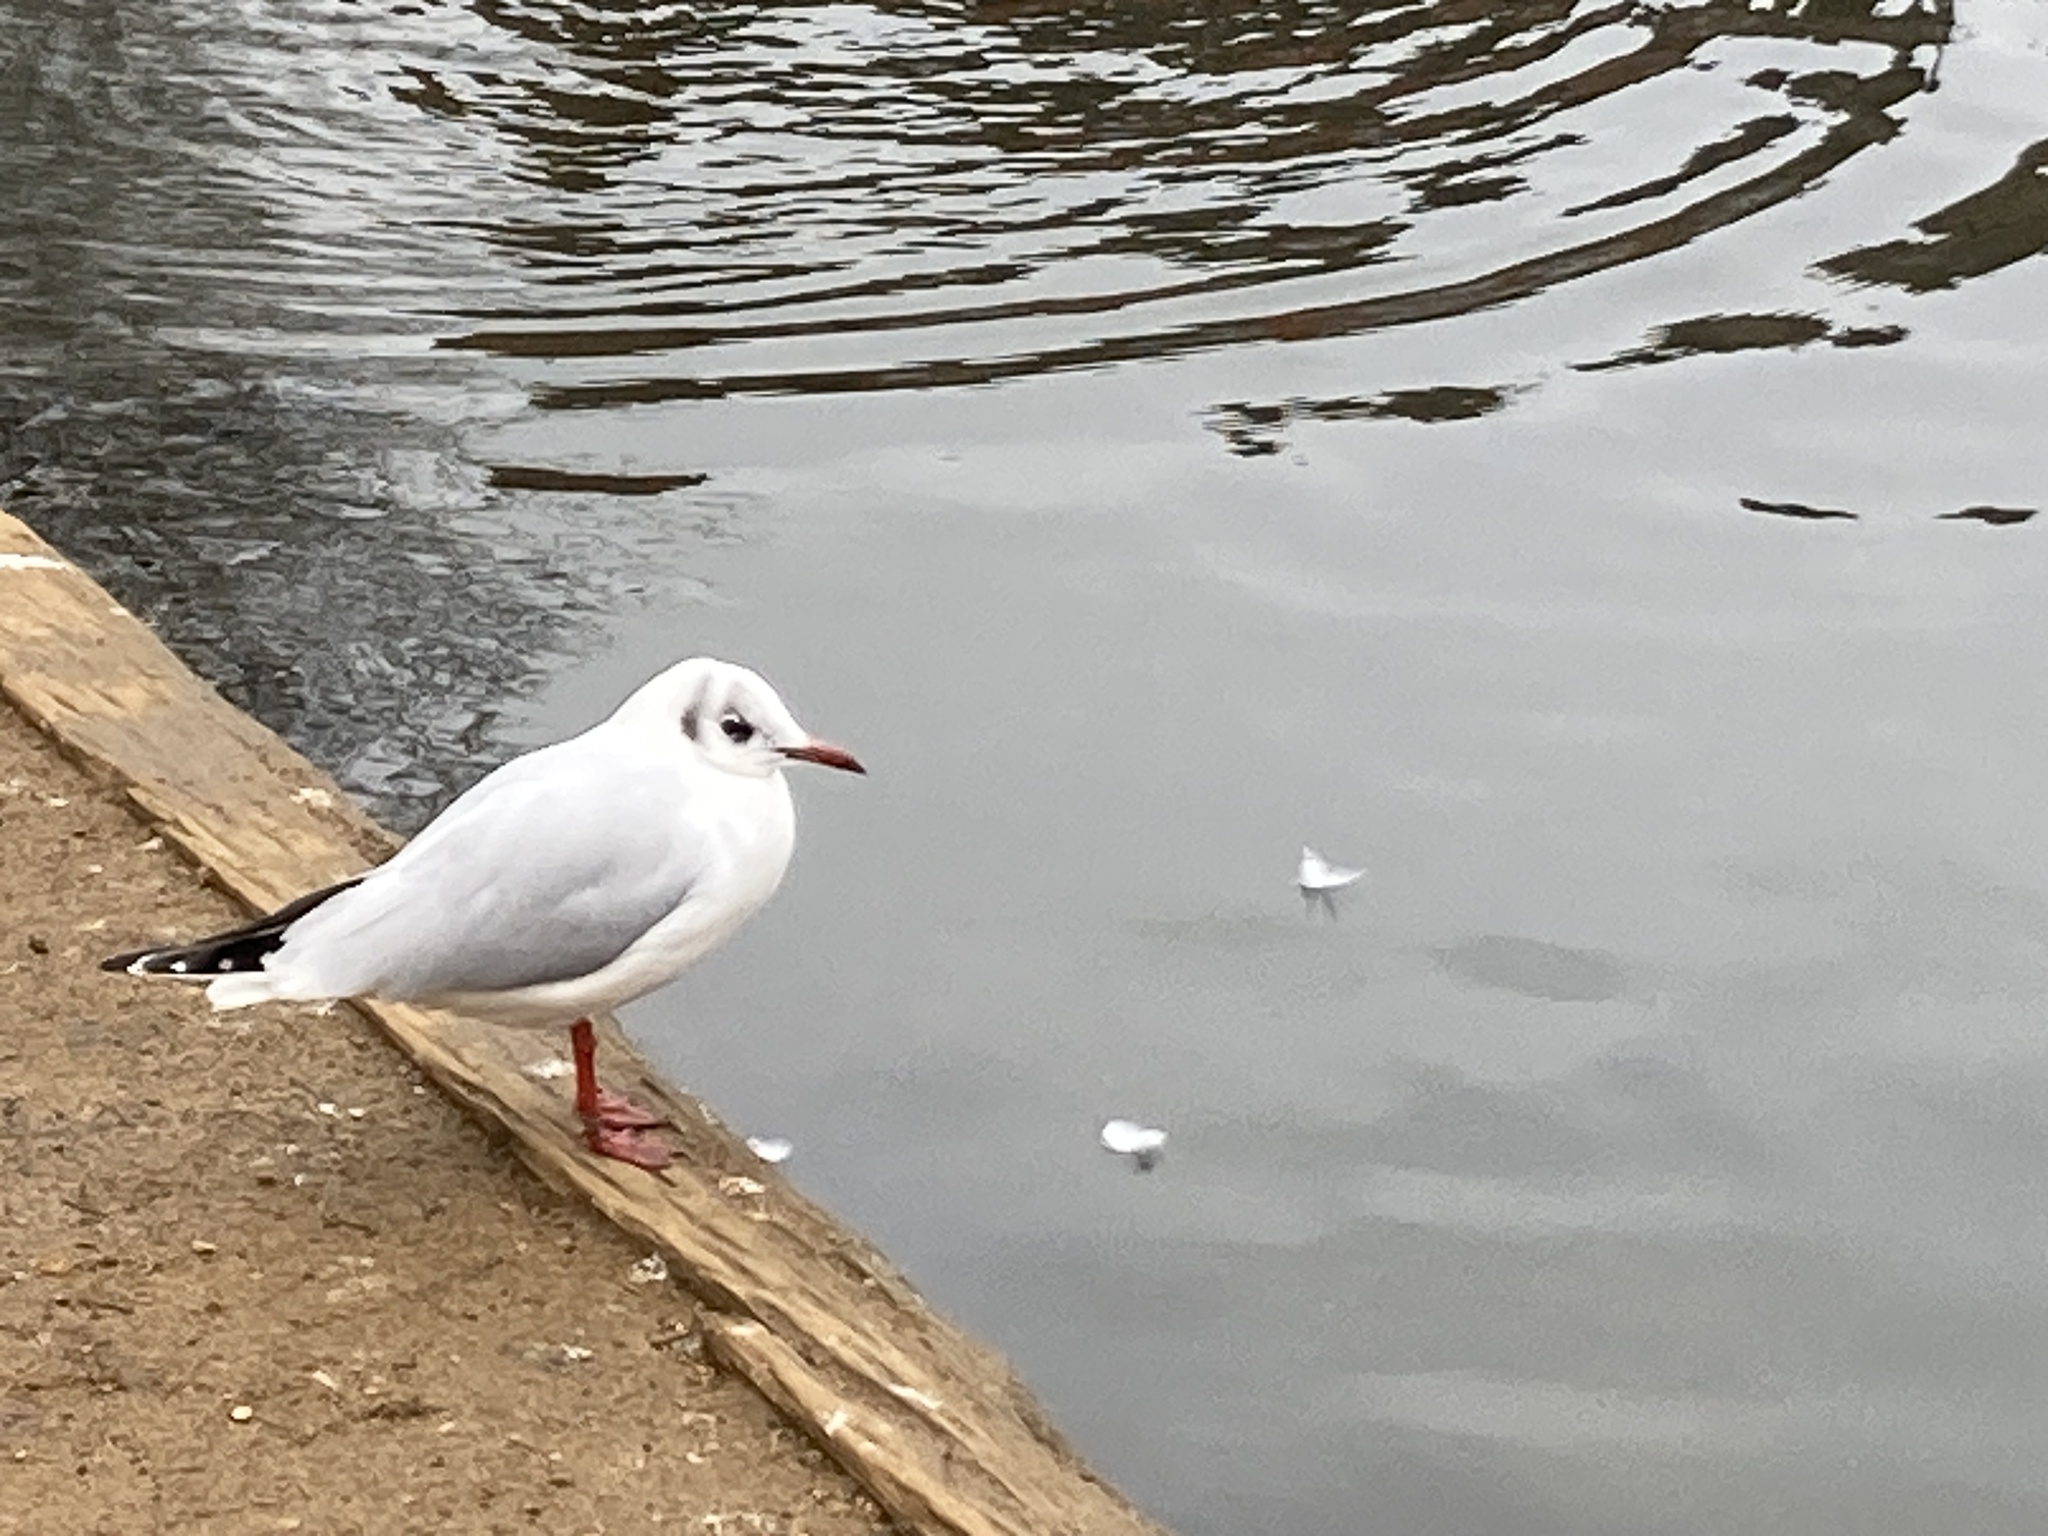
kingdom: Animalia
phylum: Chordata
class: Aves
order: Charadriiformes
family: Laridae
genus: Chroicocephalus
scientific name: Chroicocephalus ridibundus
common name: Black-headed gull
